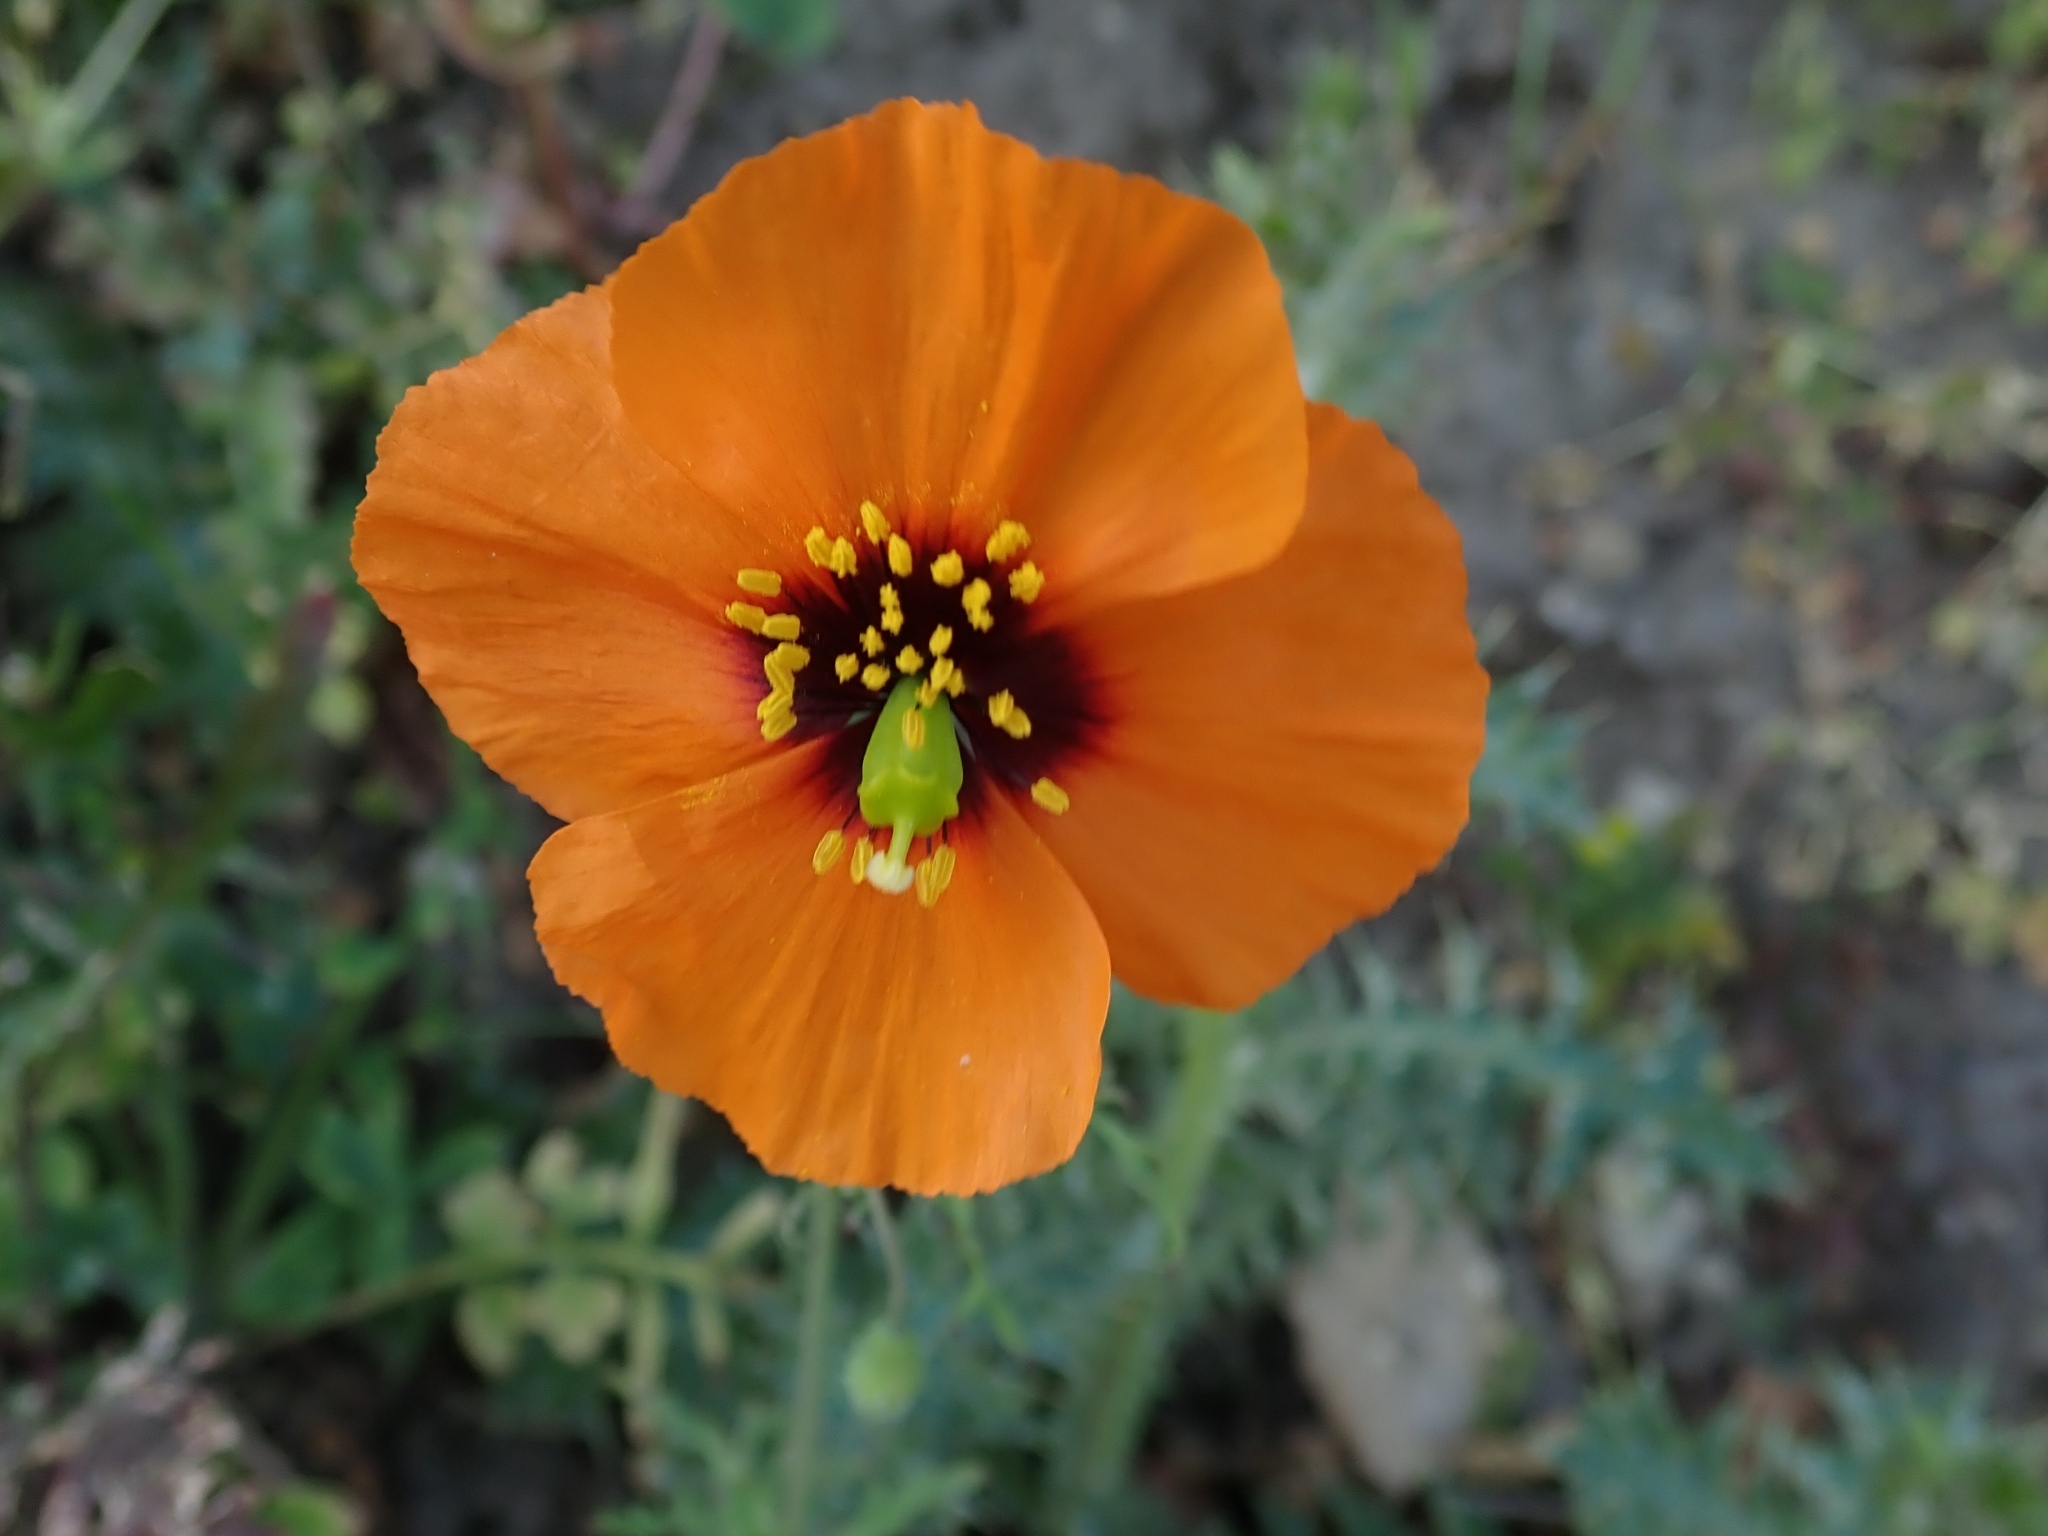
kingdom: Plantae
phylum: Tracheophyta
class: Magnoliopsida
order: Ranunculales
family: Papaveraceae
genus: Stylomecon
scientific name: Stylomecon heterophylla
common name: Flaming-poppy
